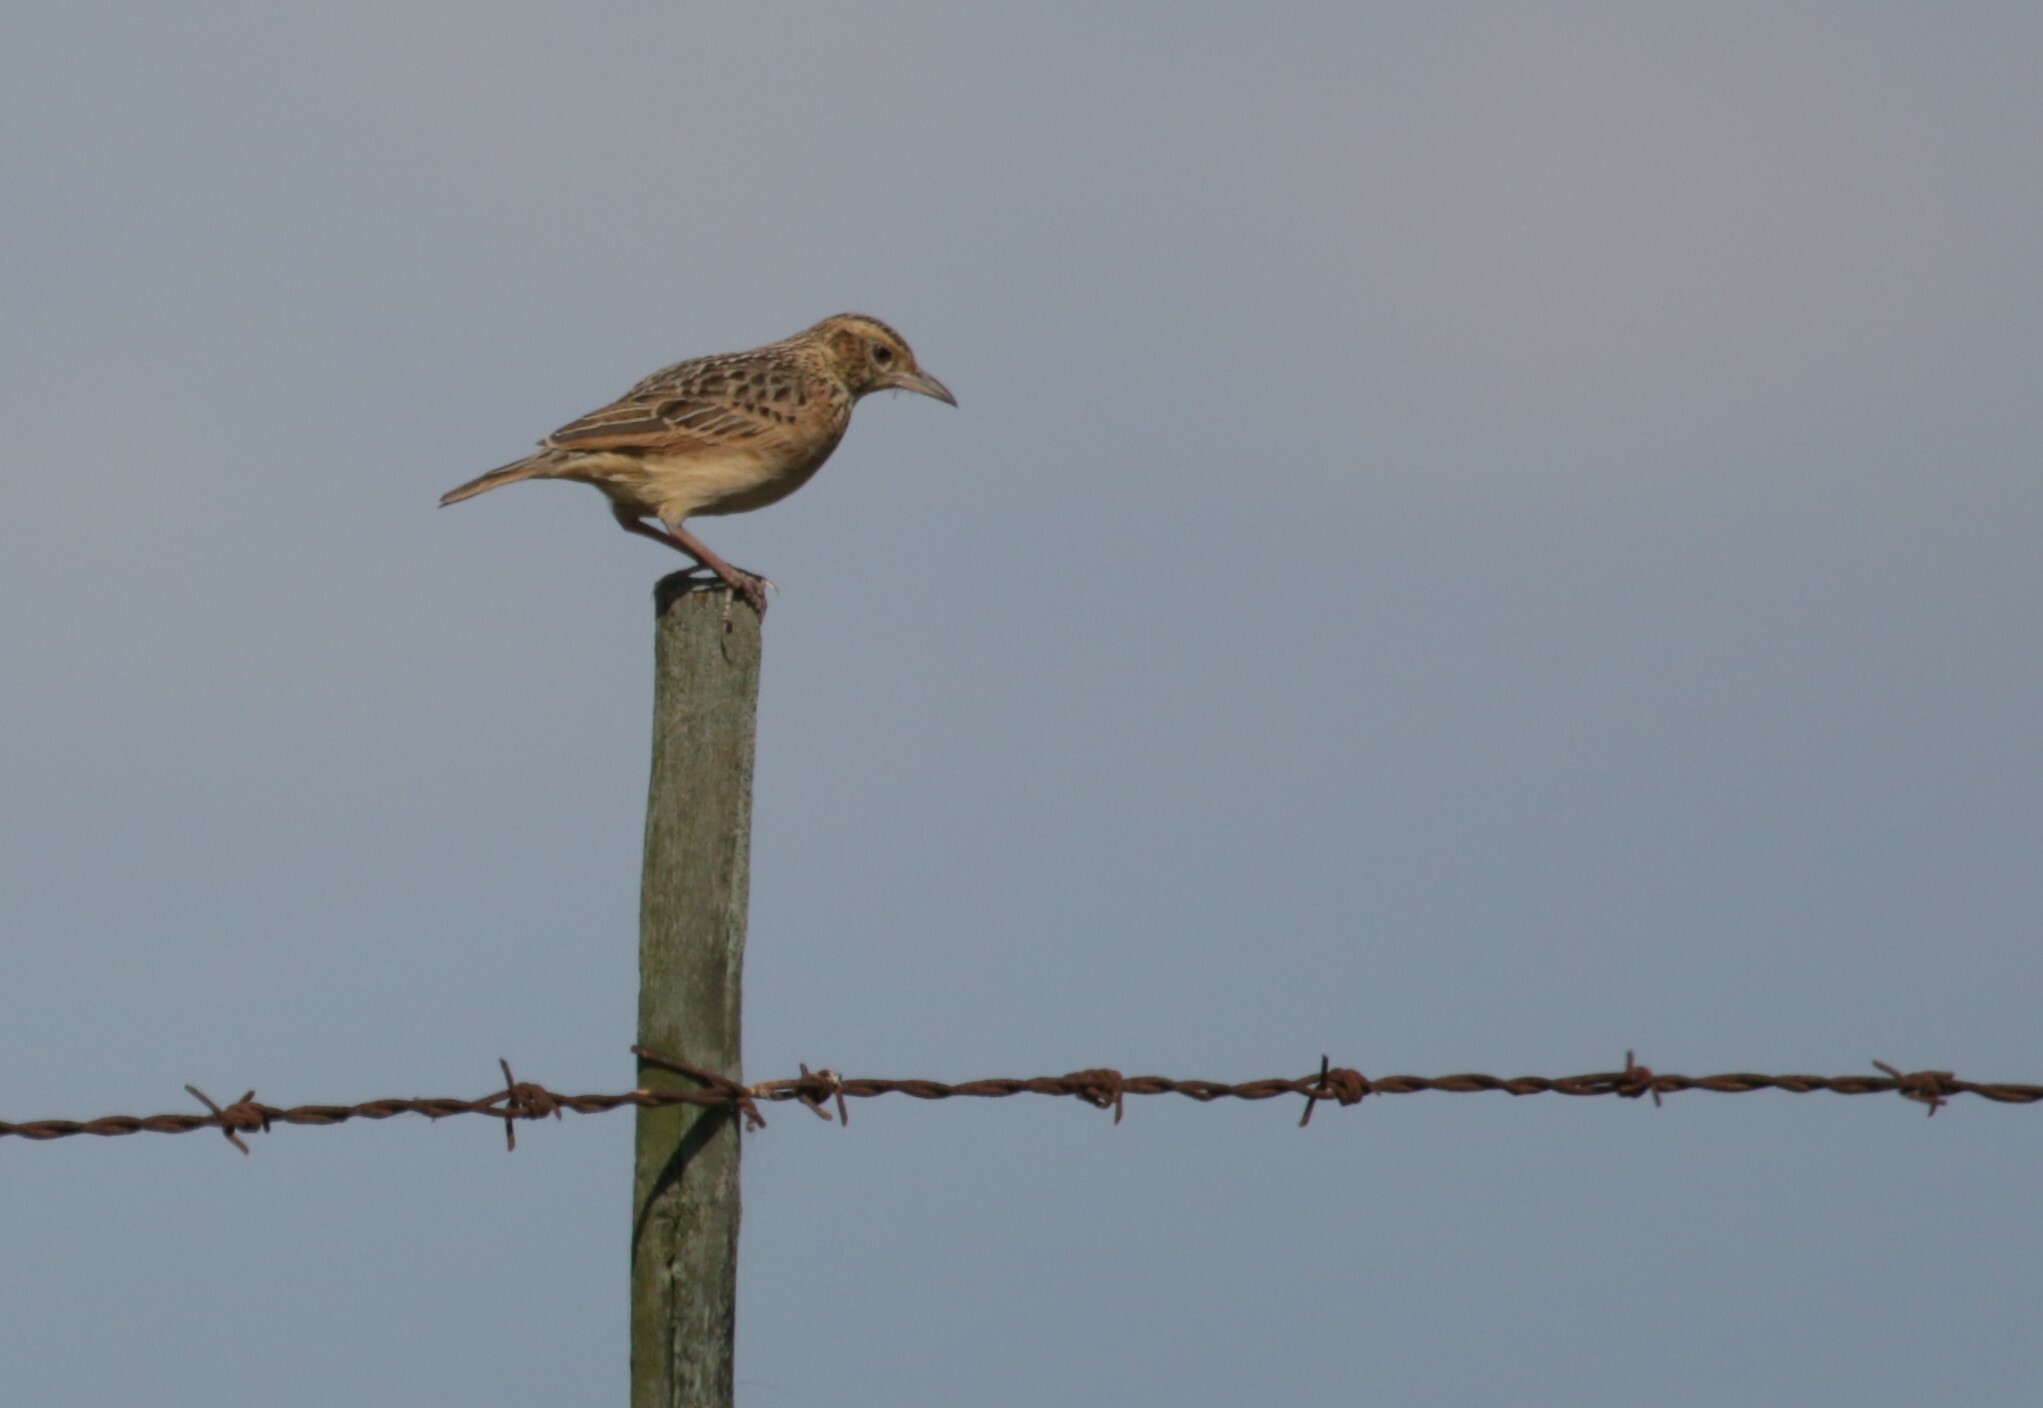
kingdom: Animalia
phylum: Chordata
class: Aves
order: Passeriformes
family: Alaudidae
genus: Mirafra
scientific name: Mirafra africana
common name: Rufous-naped lark
